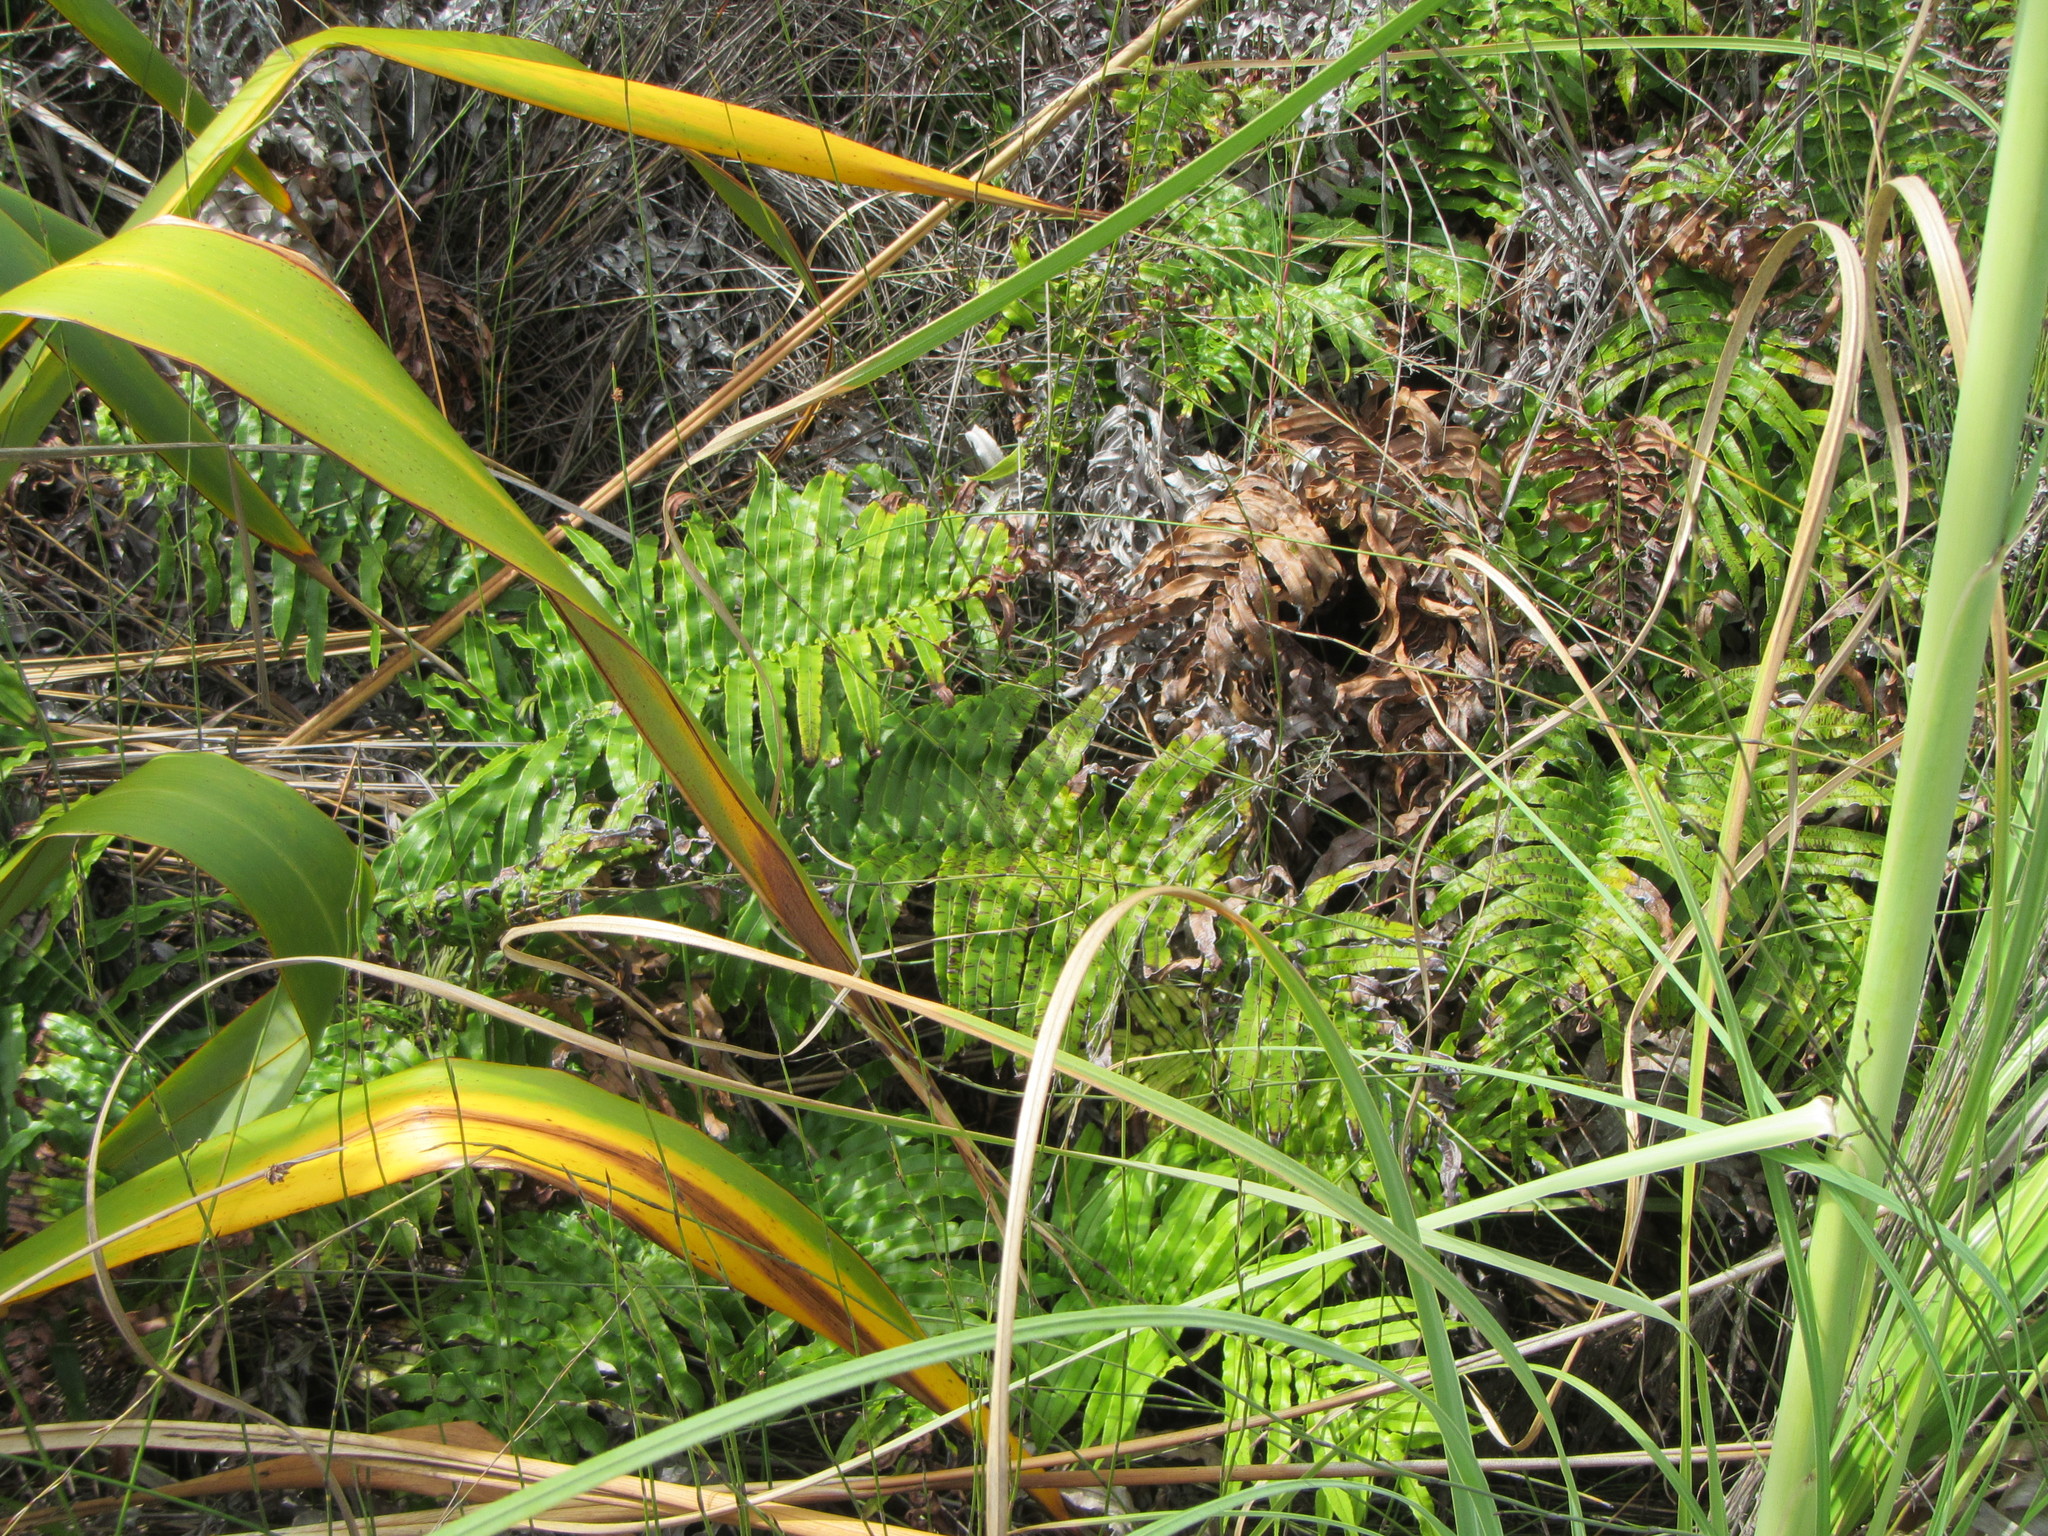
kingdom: Plantae
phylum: Tracheophyta
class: Polypodiopsida
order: Polypodiales
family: Blechnaceae
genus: Parablechnum
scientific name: Parablechnum novae-zelandiae
